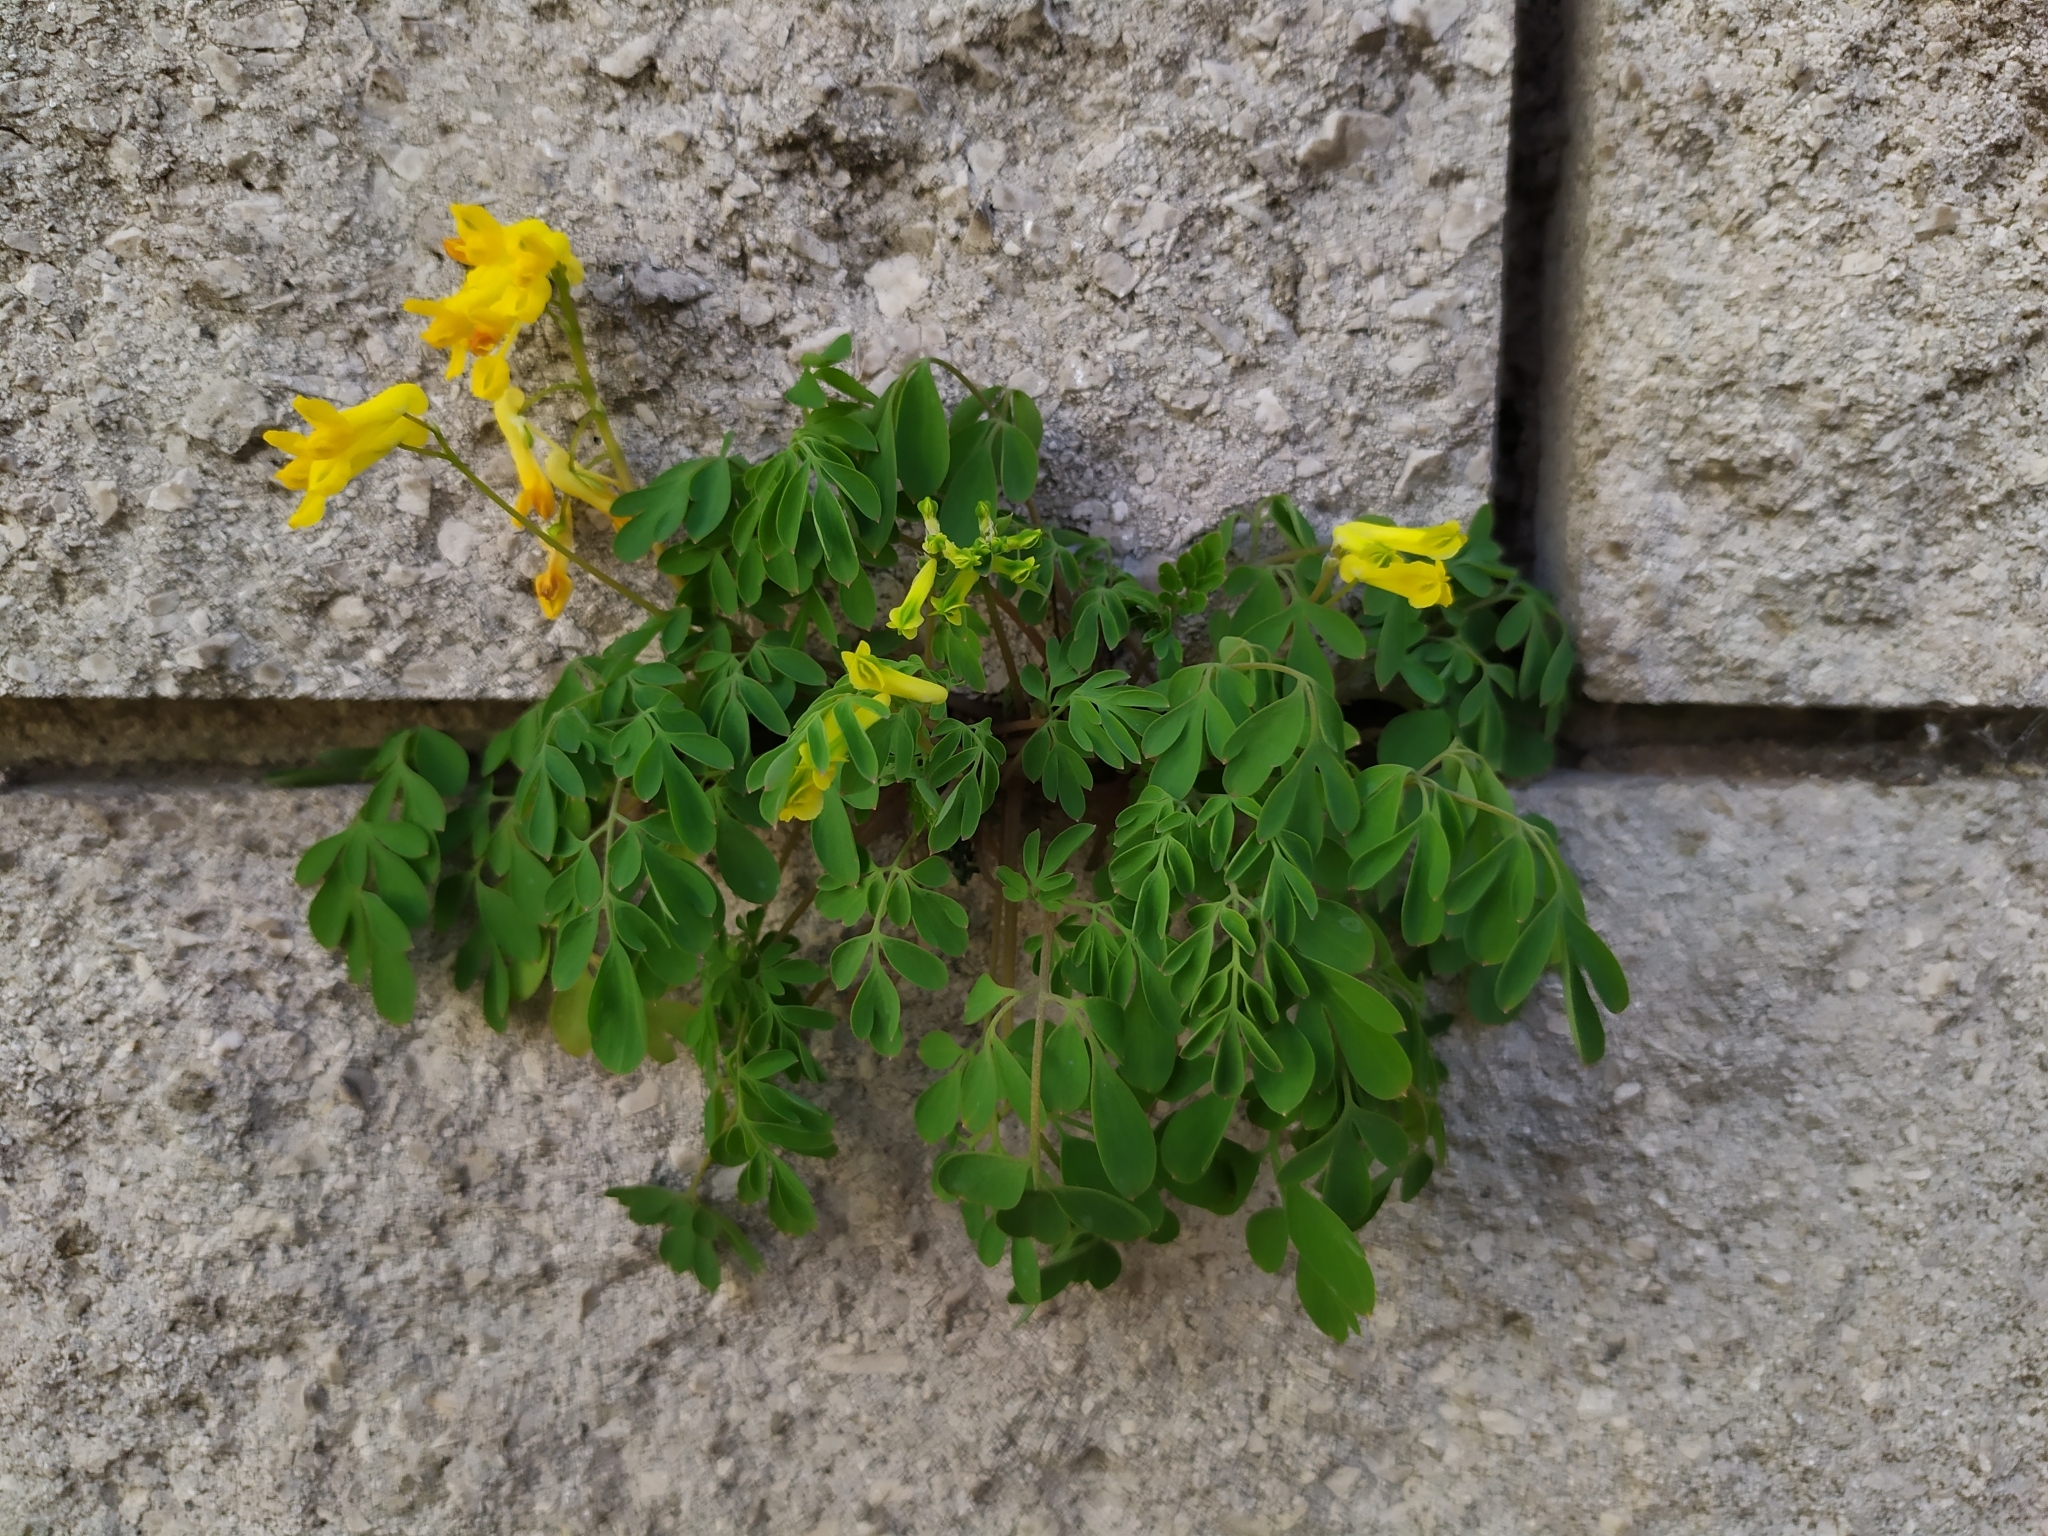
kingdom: Plantae
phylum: Tracheophyta
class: Magnoliopsida
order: Ranunculales
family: Papaveraceae
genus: Pseudofumaria
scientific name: Pseudofumaria lutea
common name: Yellow corydalis
